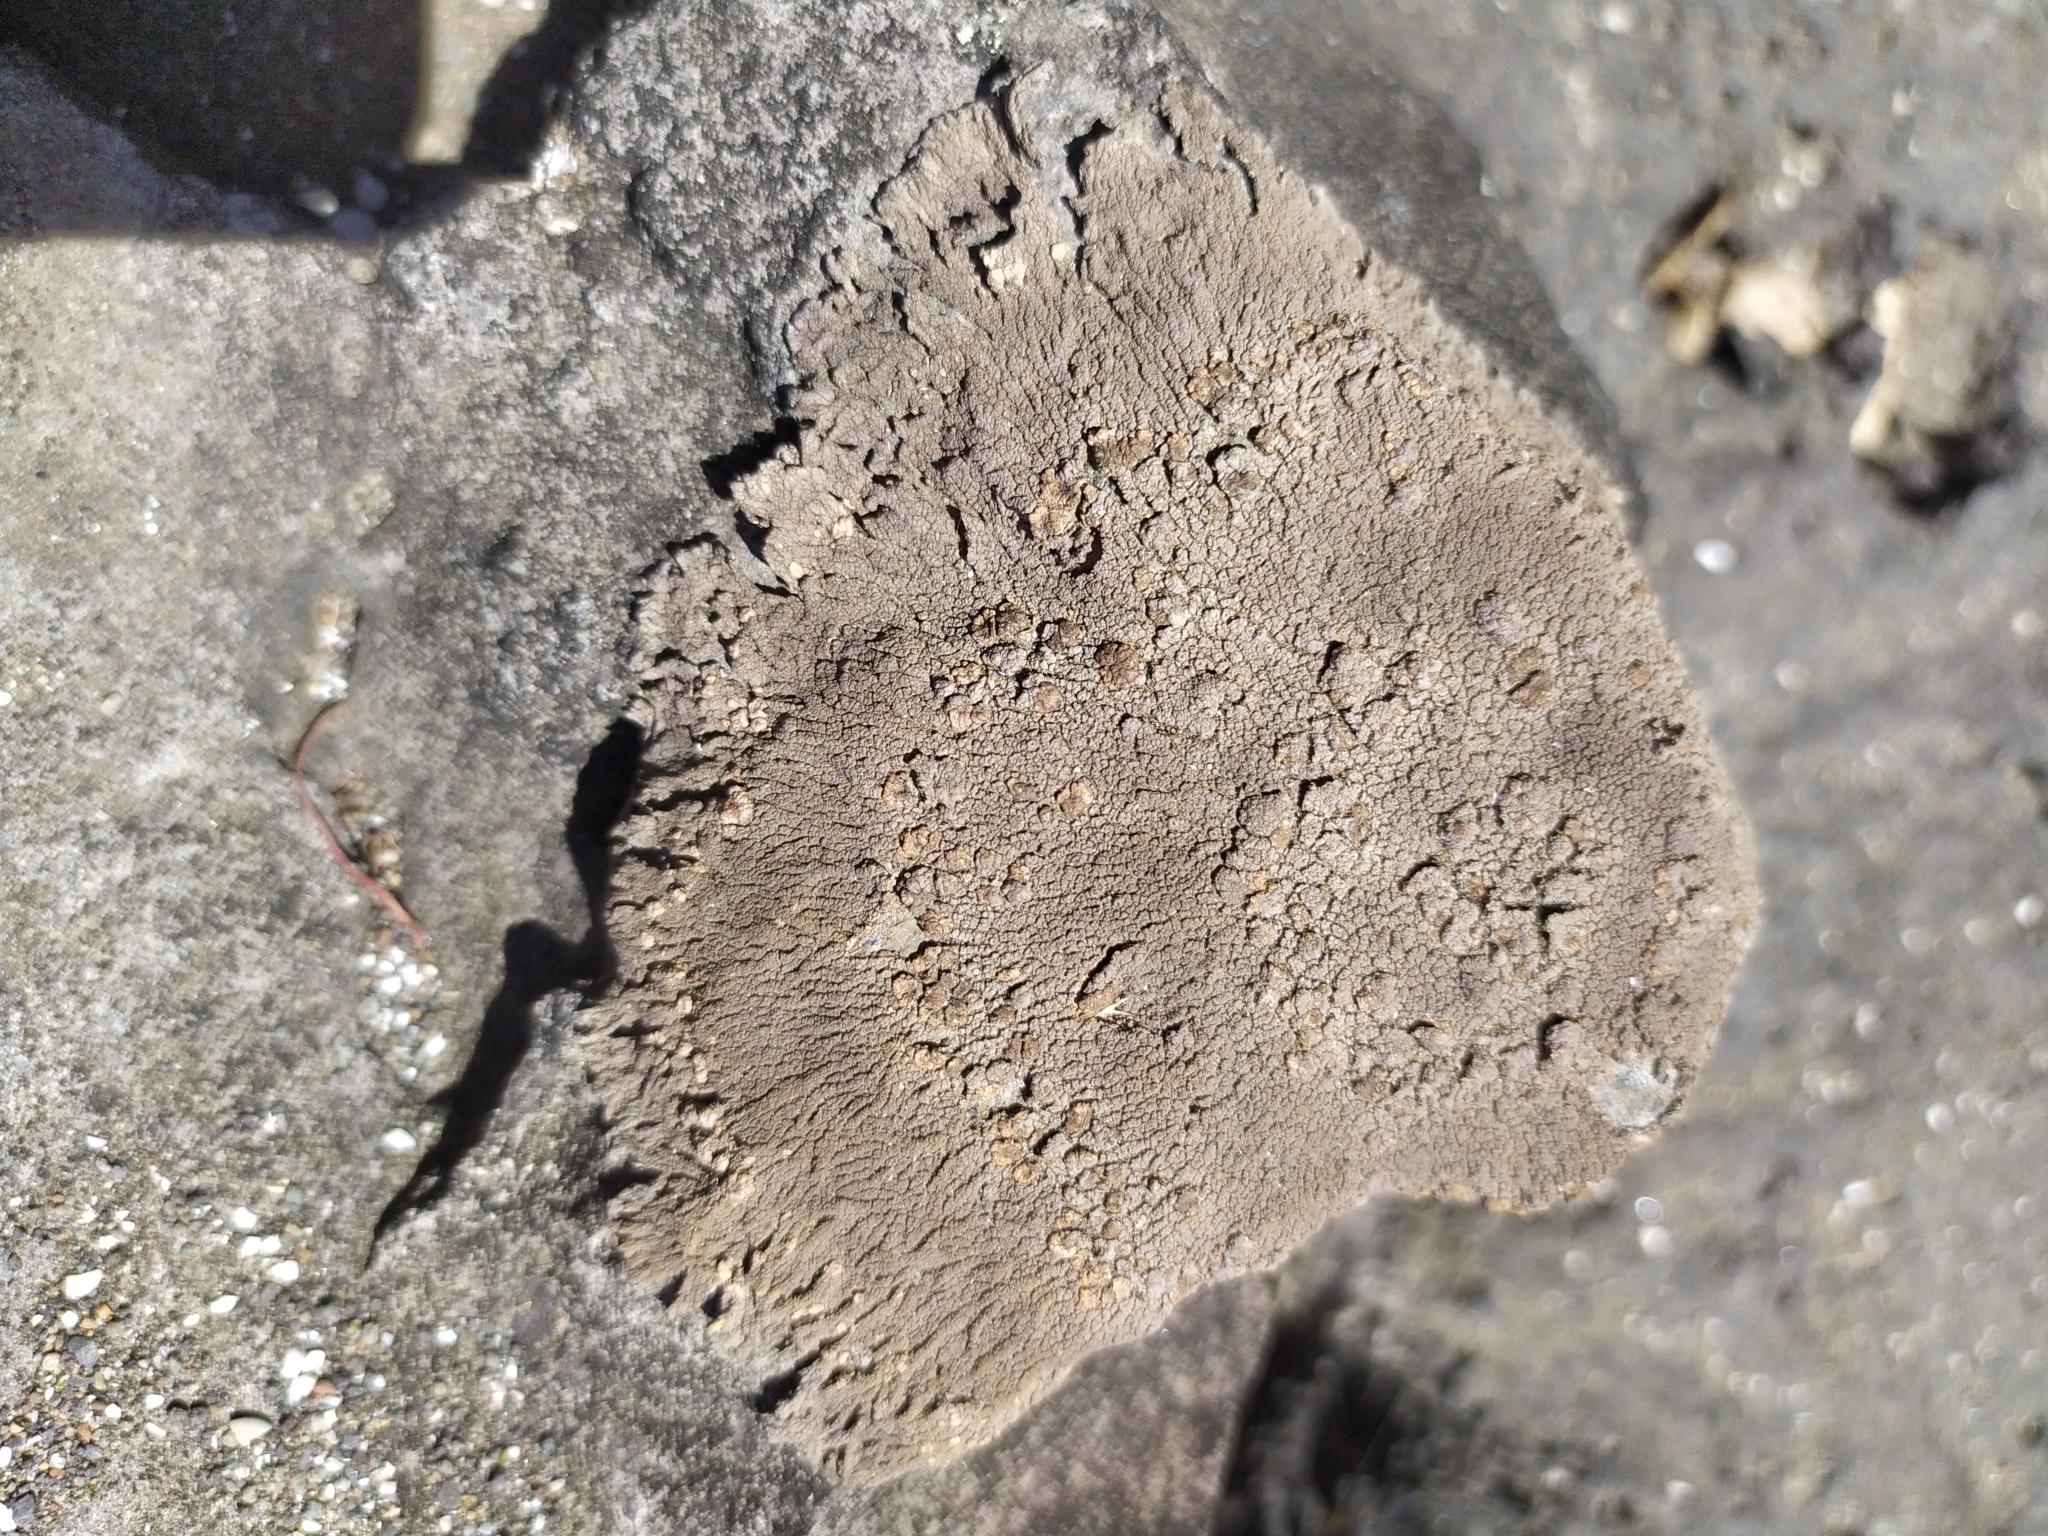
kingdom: Fungi
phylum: Ascomycota
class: Lecanoromycetes
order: Baeomycetales
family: Trapeliaceae
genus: Placopsis
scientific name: Placopsis perrugosa
